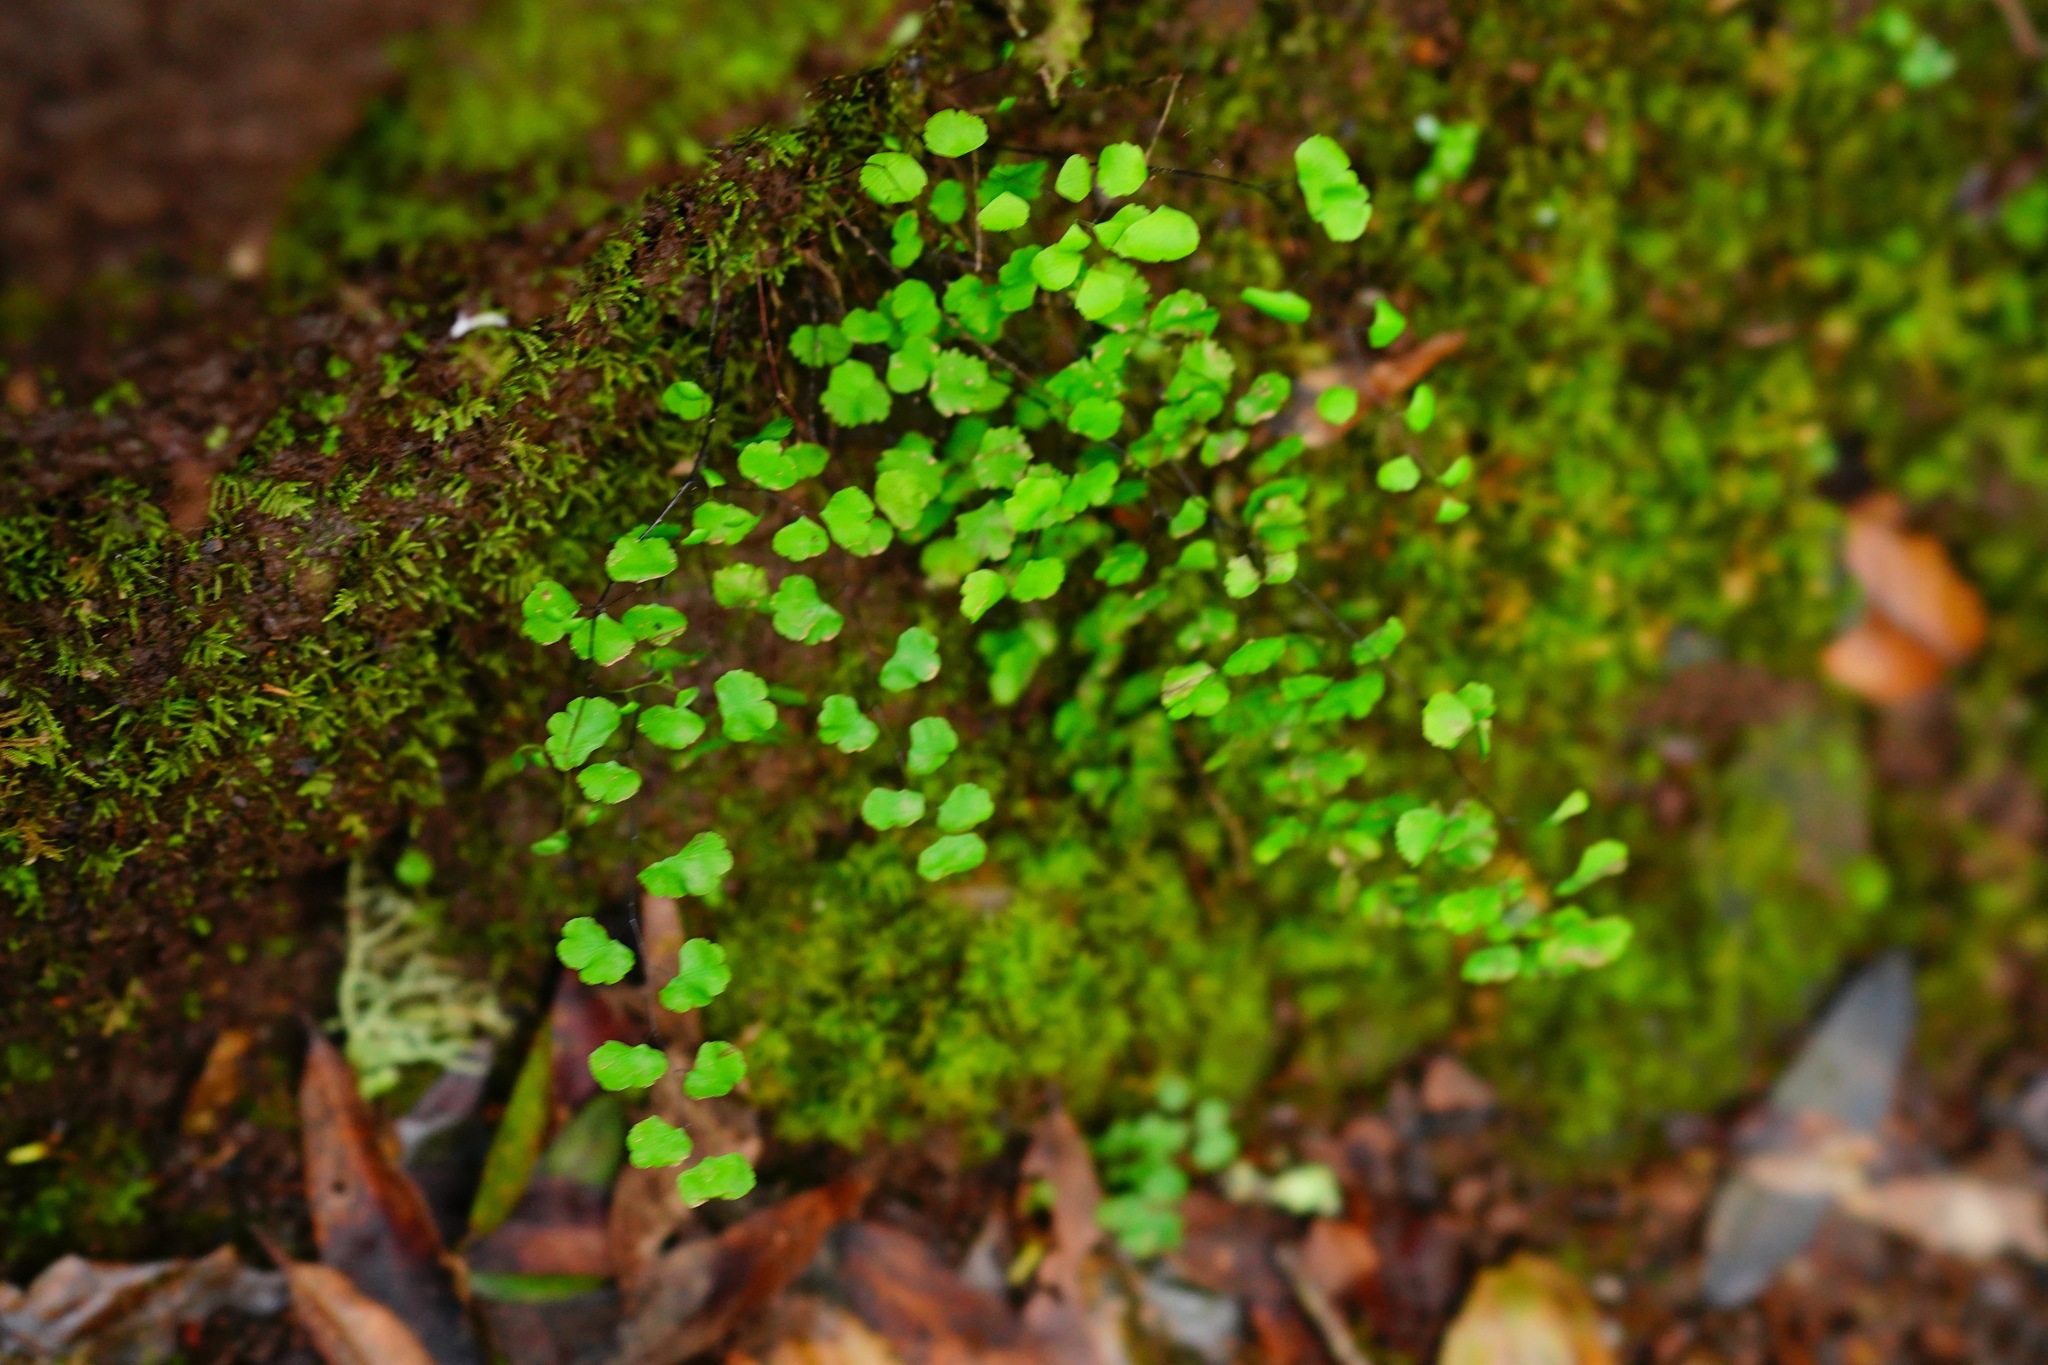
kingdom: Plantae
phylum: Tracheophyta
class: Polypodiopsida
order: Polypodiales
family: Pteridaceae
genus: Adiantum
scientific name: Adiantum jordanii
